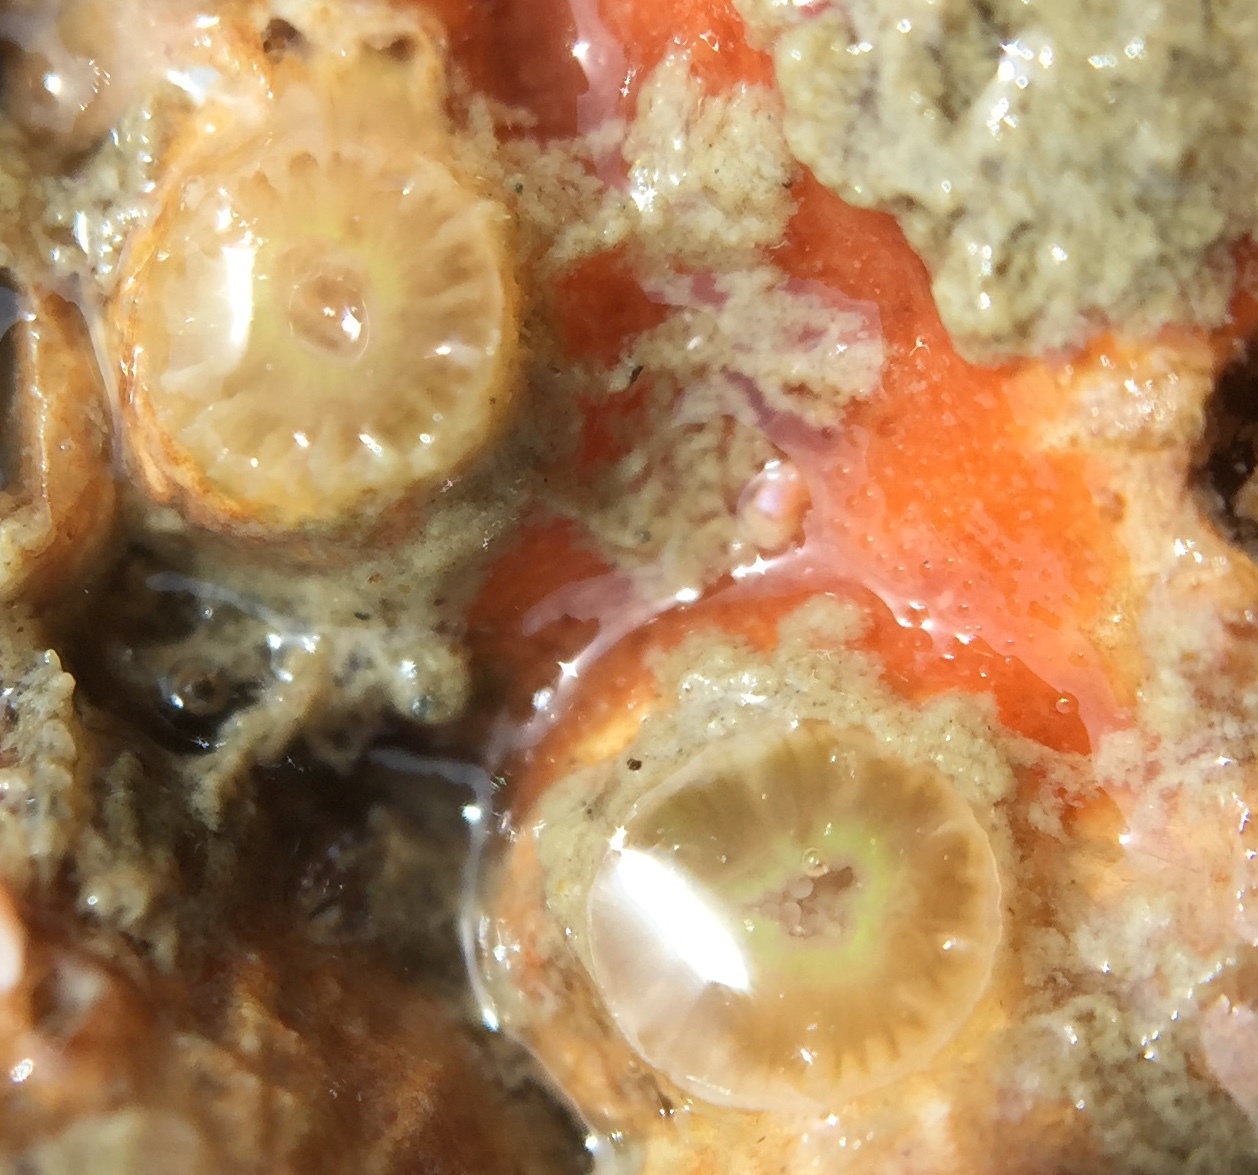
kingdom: Animalia
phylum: Cnidaria
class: Anthozoa
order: Scleractinia
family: Rhizangiidae
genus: Culicia
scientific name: Culicia rubeola
